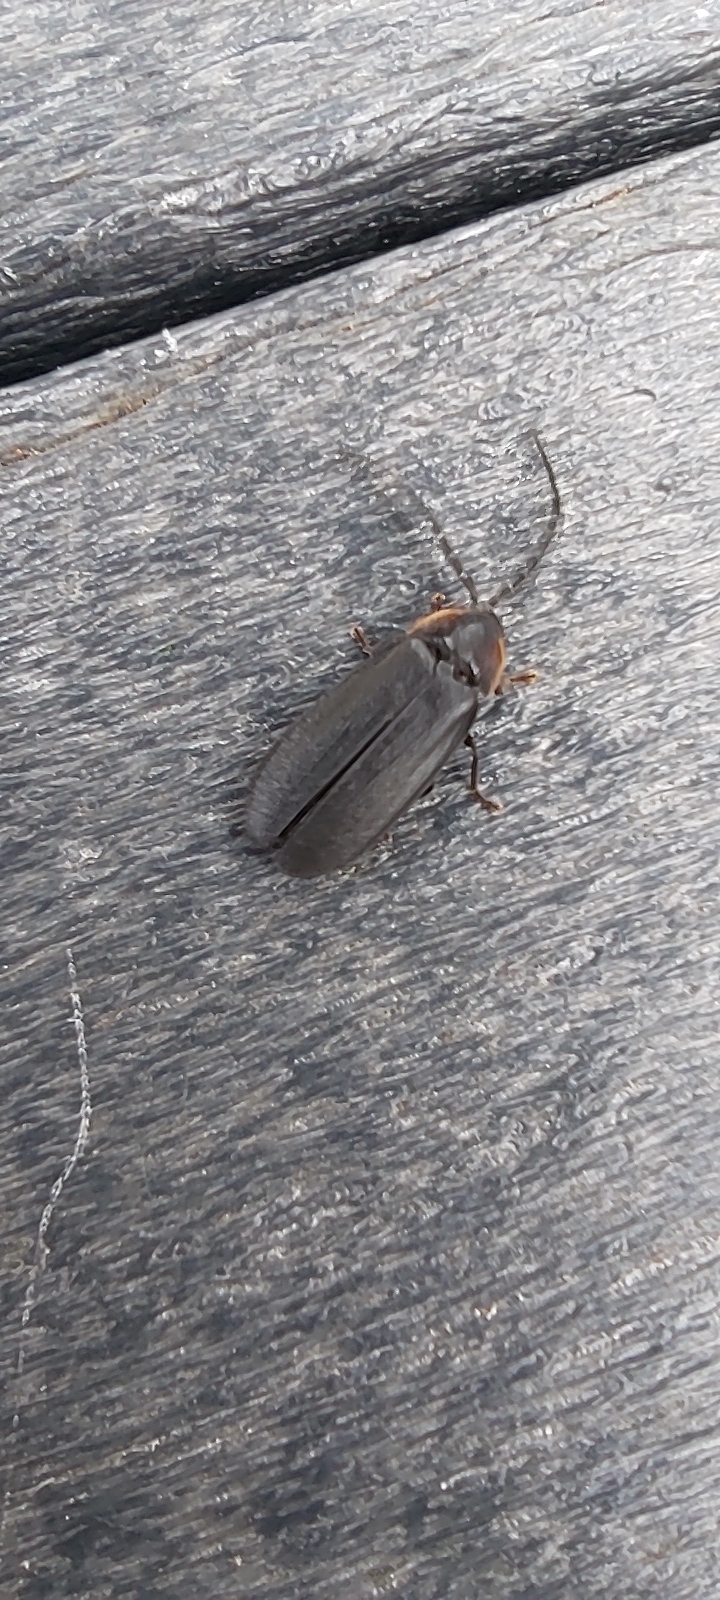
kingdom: Animalia
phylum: Arthropoda
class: Insecta
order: Coleoptera
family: Lampyridae
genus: Lucidota
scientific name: Lucidota atra
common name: Black firefly
